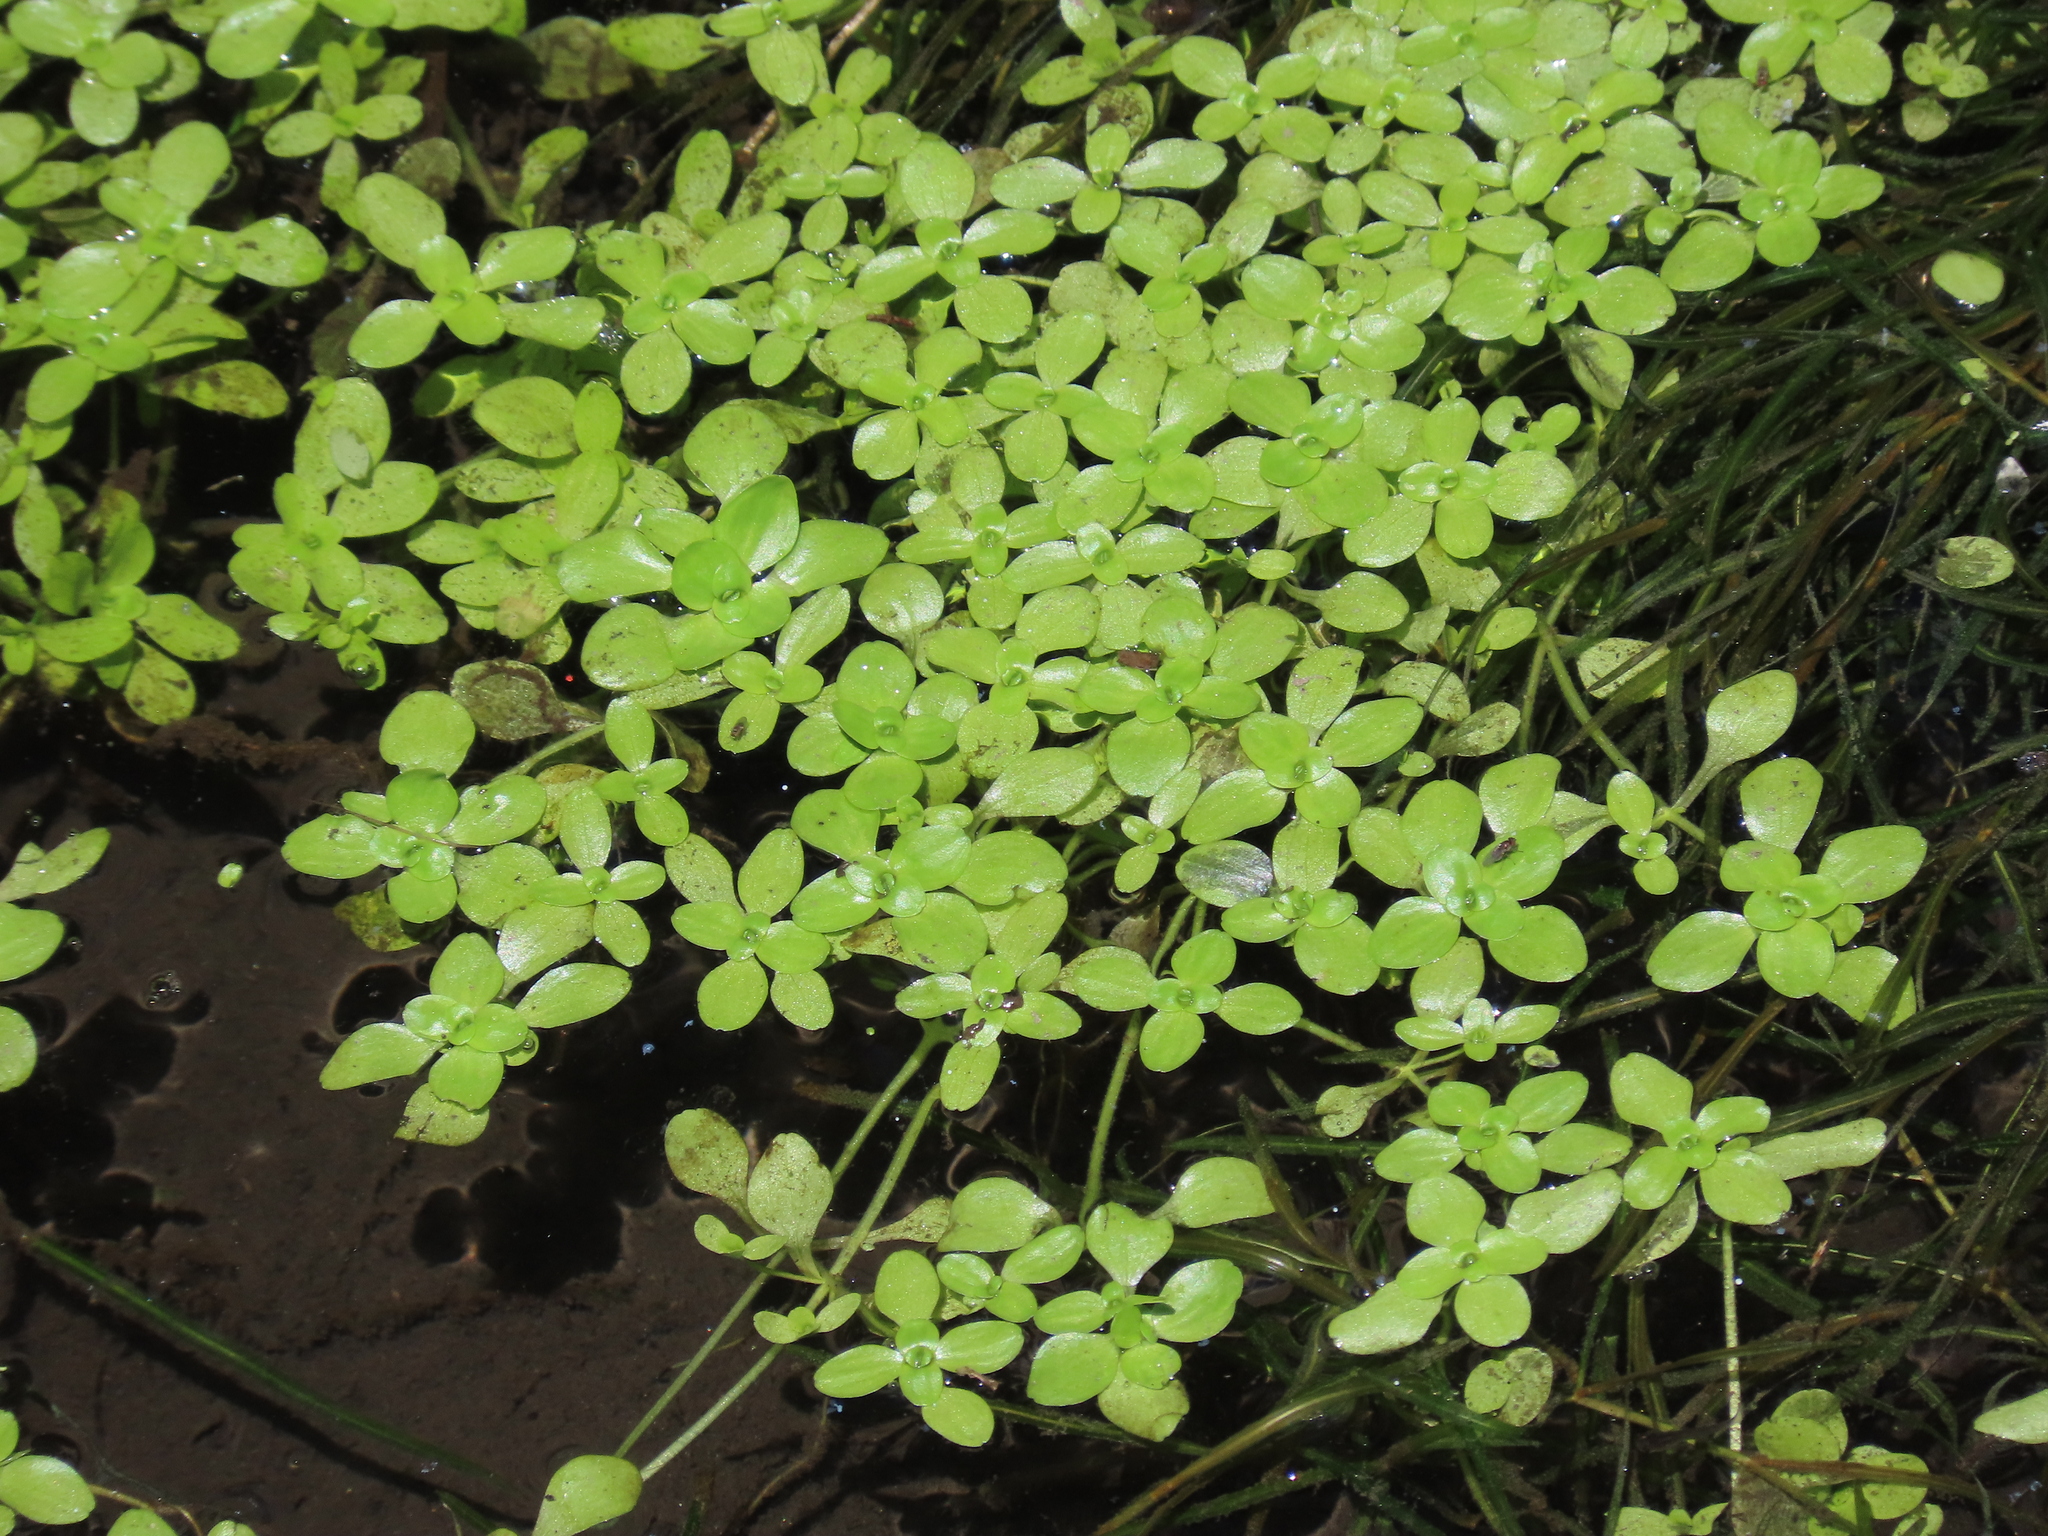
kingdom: Plantae
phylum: Tracheophyta
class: Magnoliopsida
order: Lamiales
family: Plantaginaceae
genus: Callitriche
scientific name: Callitriche stagnalis
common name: Common water-starwort
